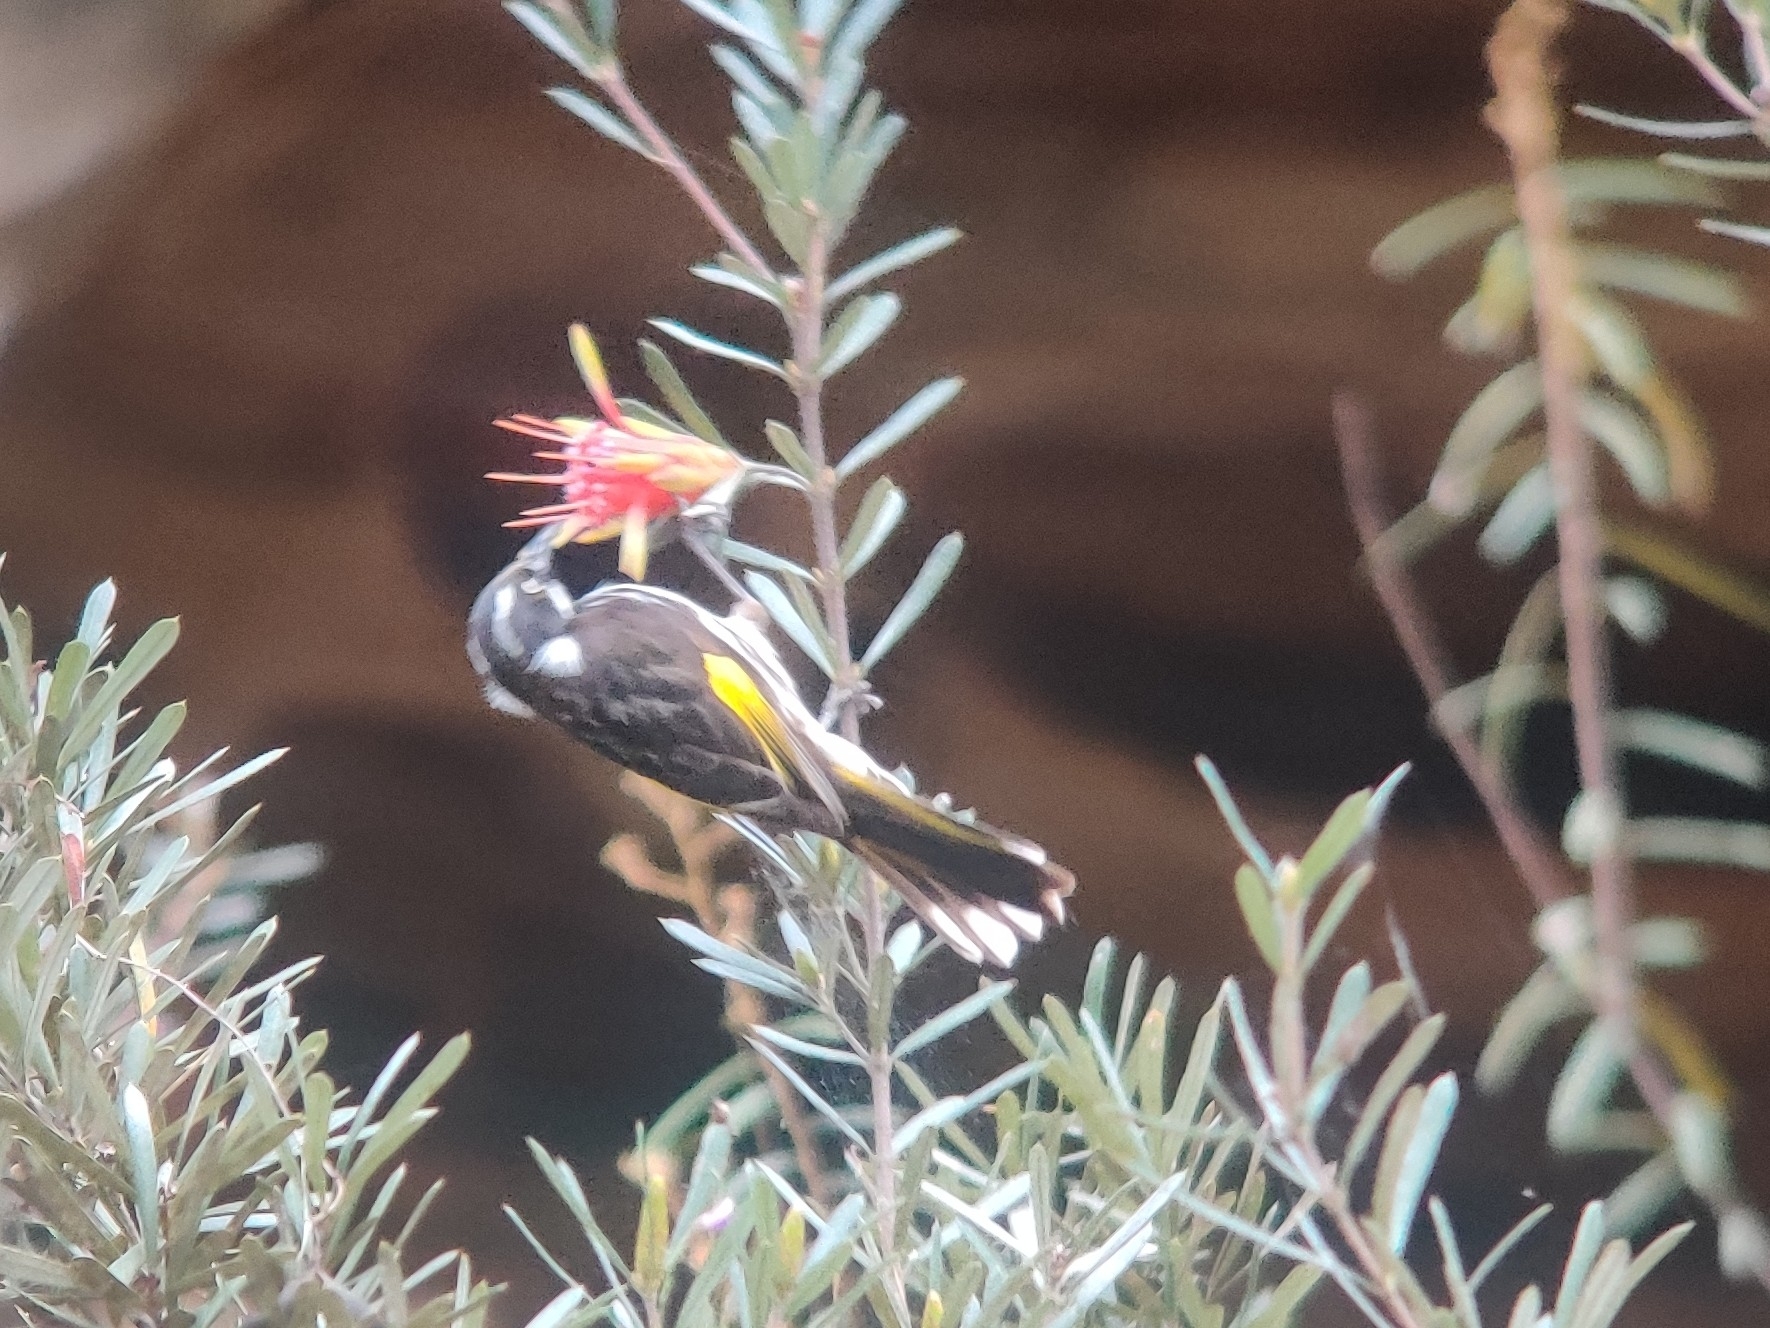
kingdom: Animalia
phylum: Chordata
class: Aves
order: Passeriformes
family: Meliphagidae
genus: Phylidonyris
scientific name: Phylidonyris novaehollandiae
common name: New holland honeyeater
